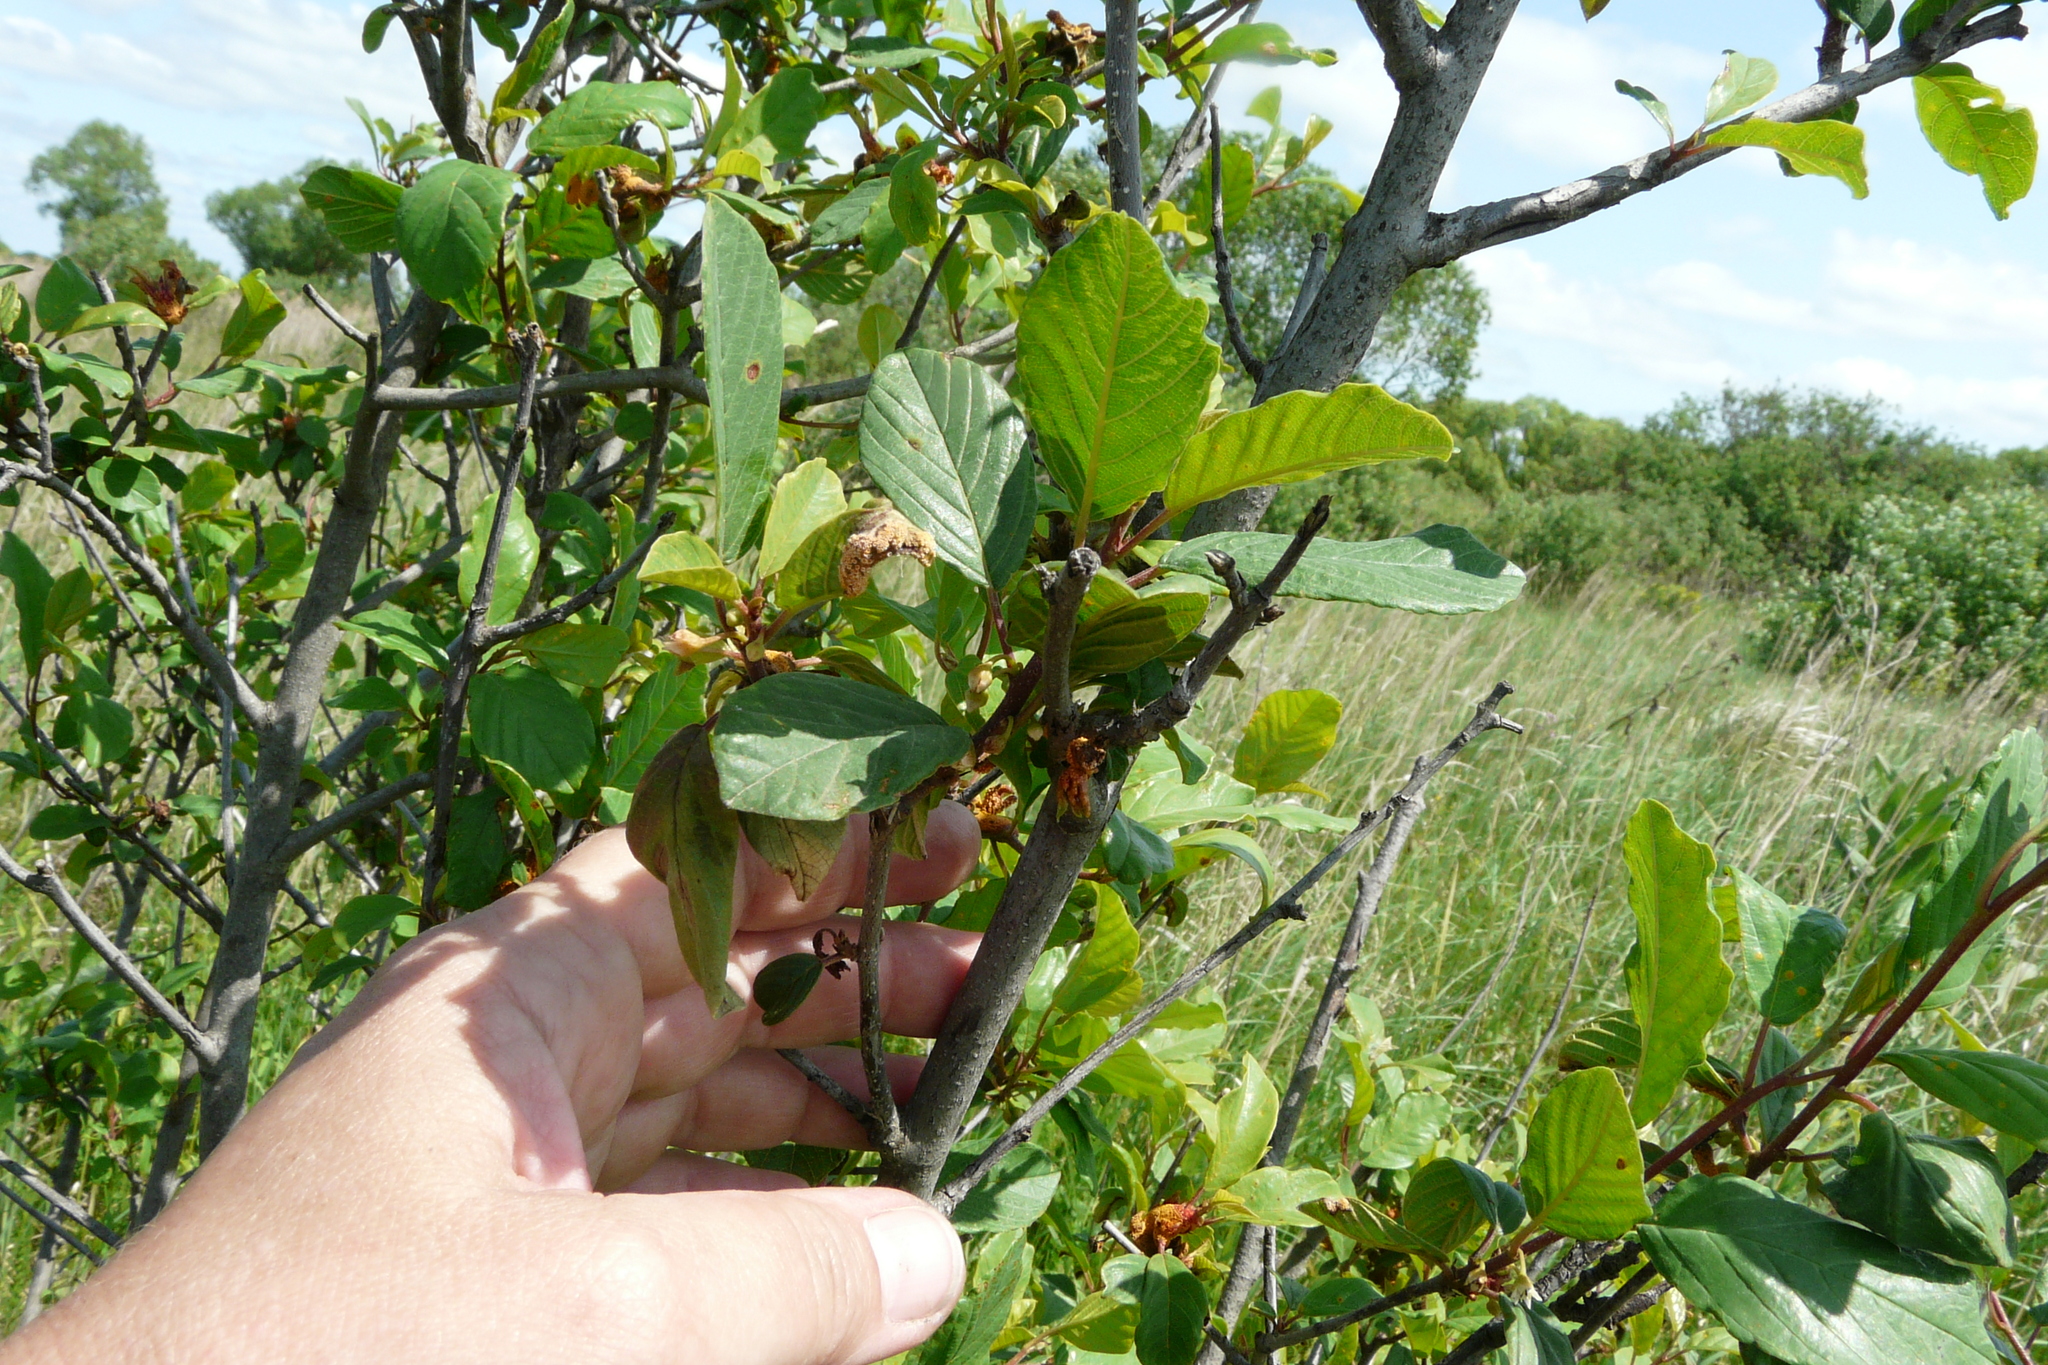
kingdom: Plantae
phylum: Tracheophyta
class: Magnoliopsida
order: Rosales
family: Rhamnaceae
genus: Frangula
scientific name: Frangula alnus
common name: Alder buckthorn
